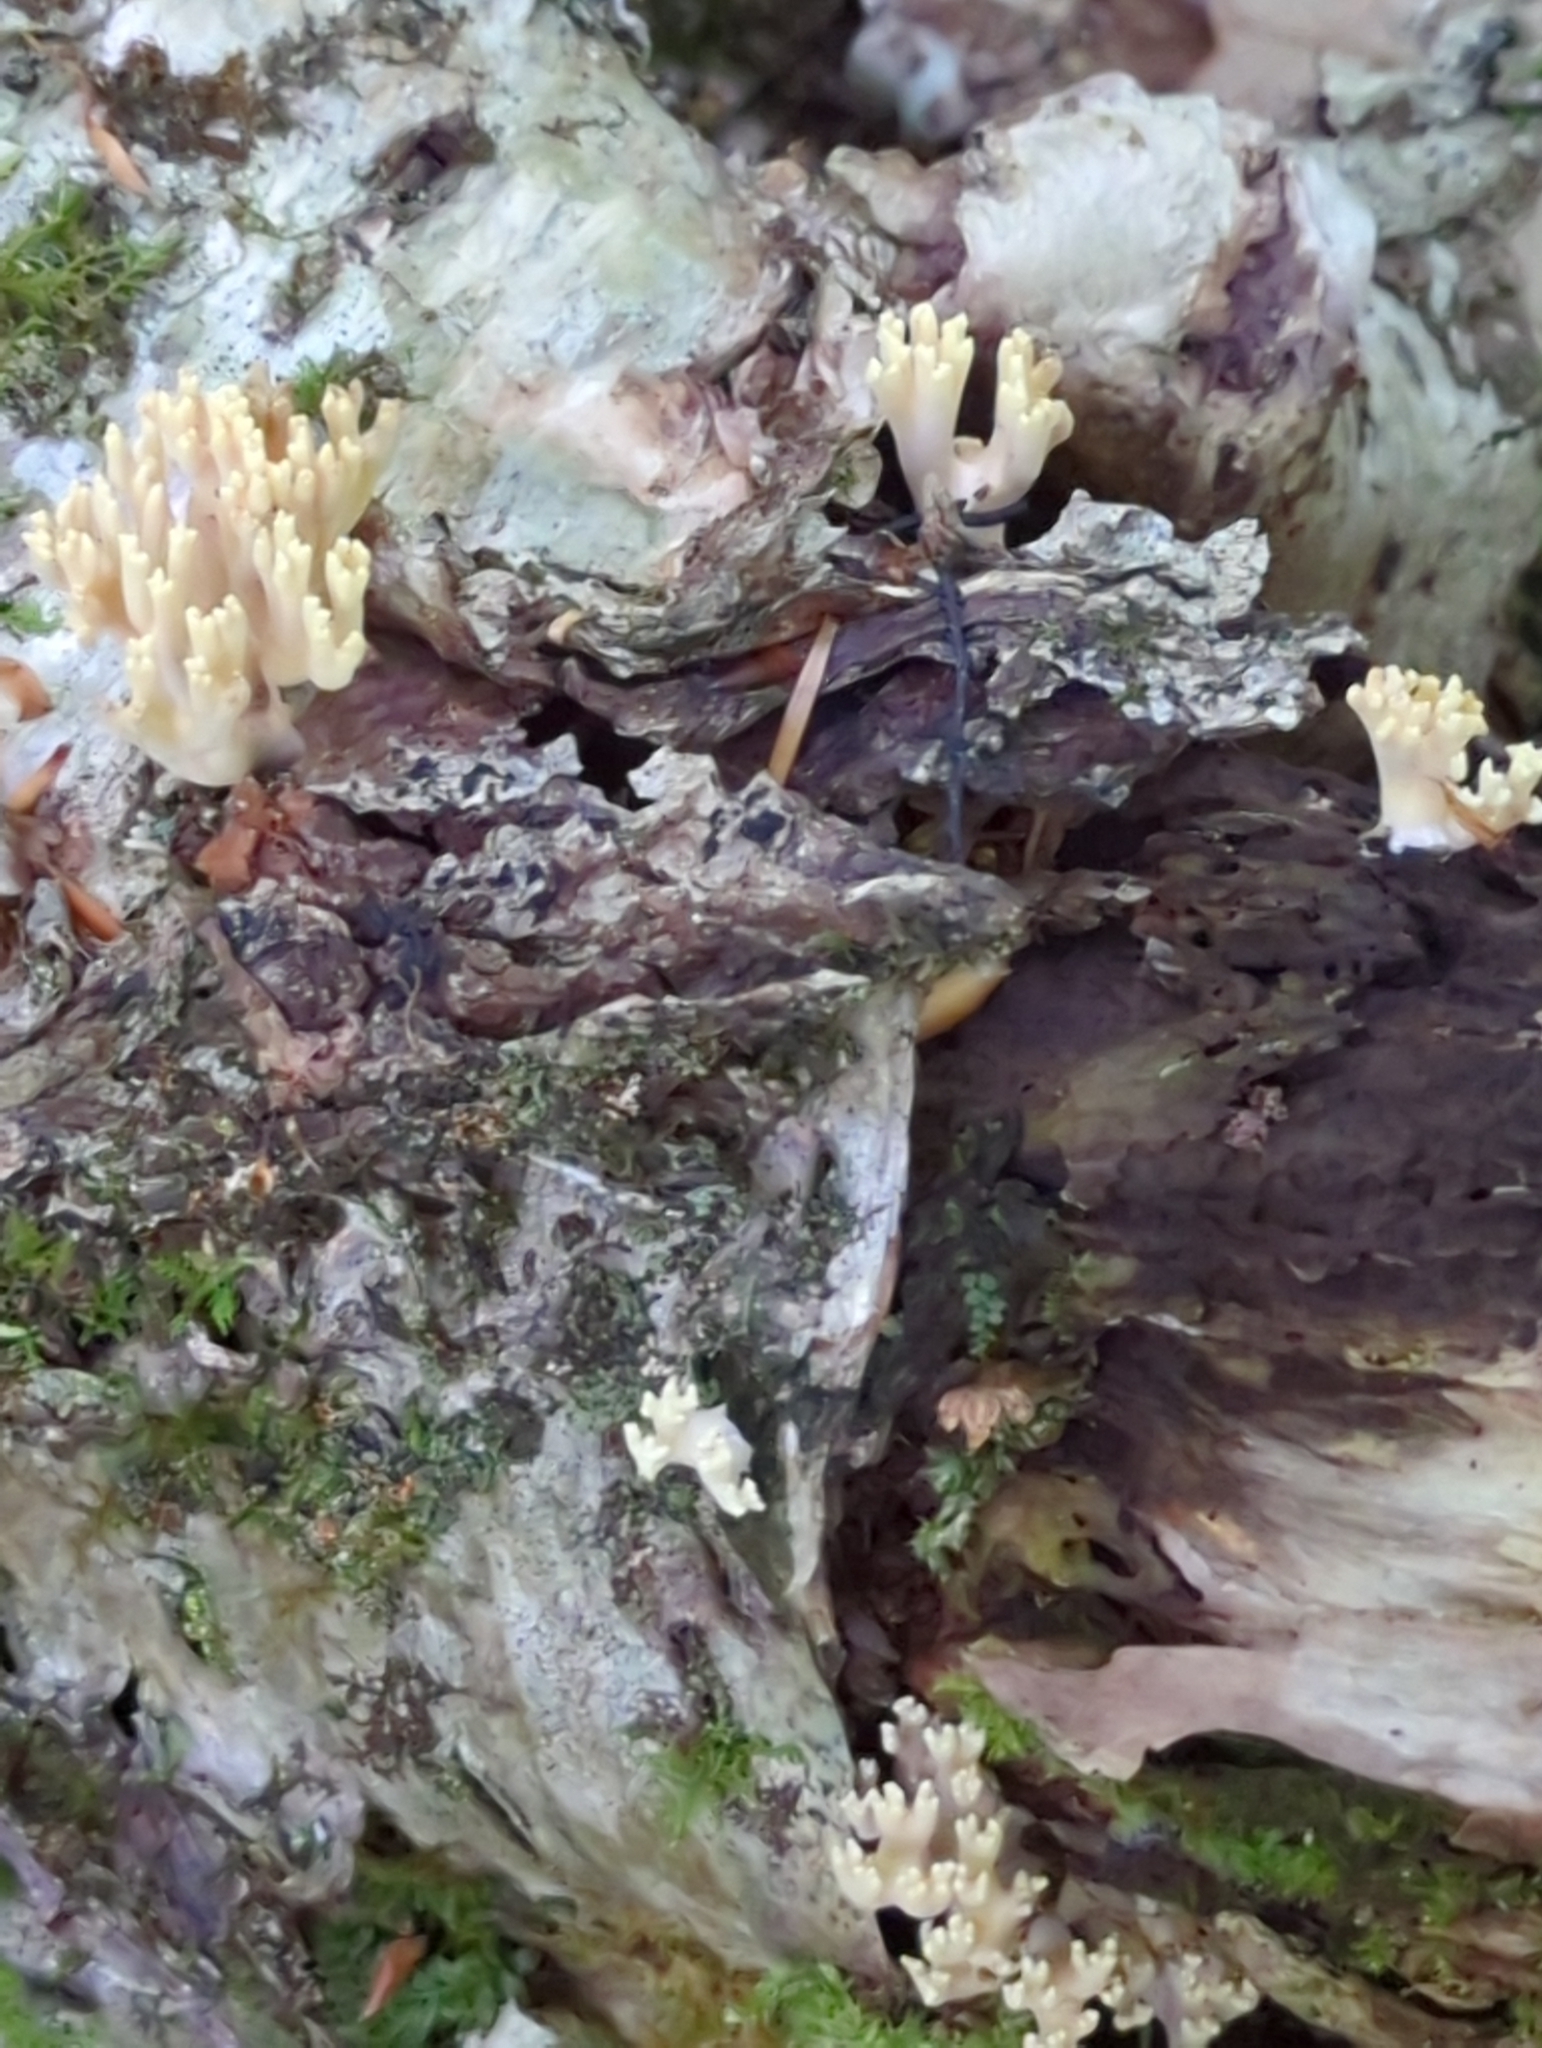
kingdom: Fungi
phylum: Basidiomycota
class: Agaricomycetes
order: Gomphales
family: Gomphaceae
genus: Ramaria
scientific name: Ramaria stricta
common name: Upright coral
